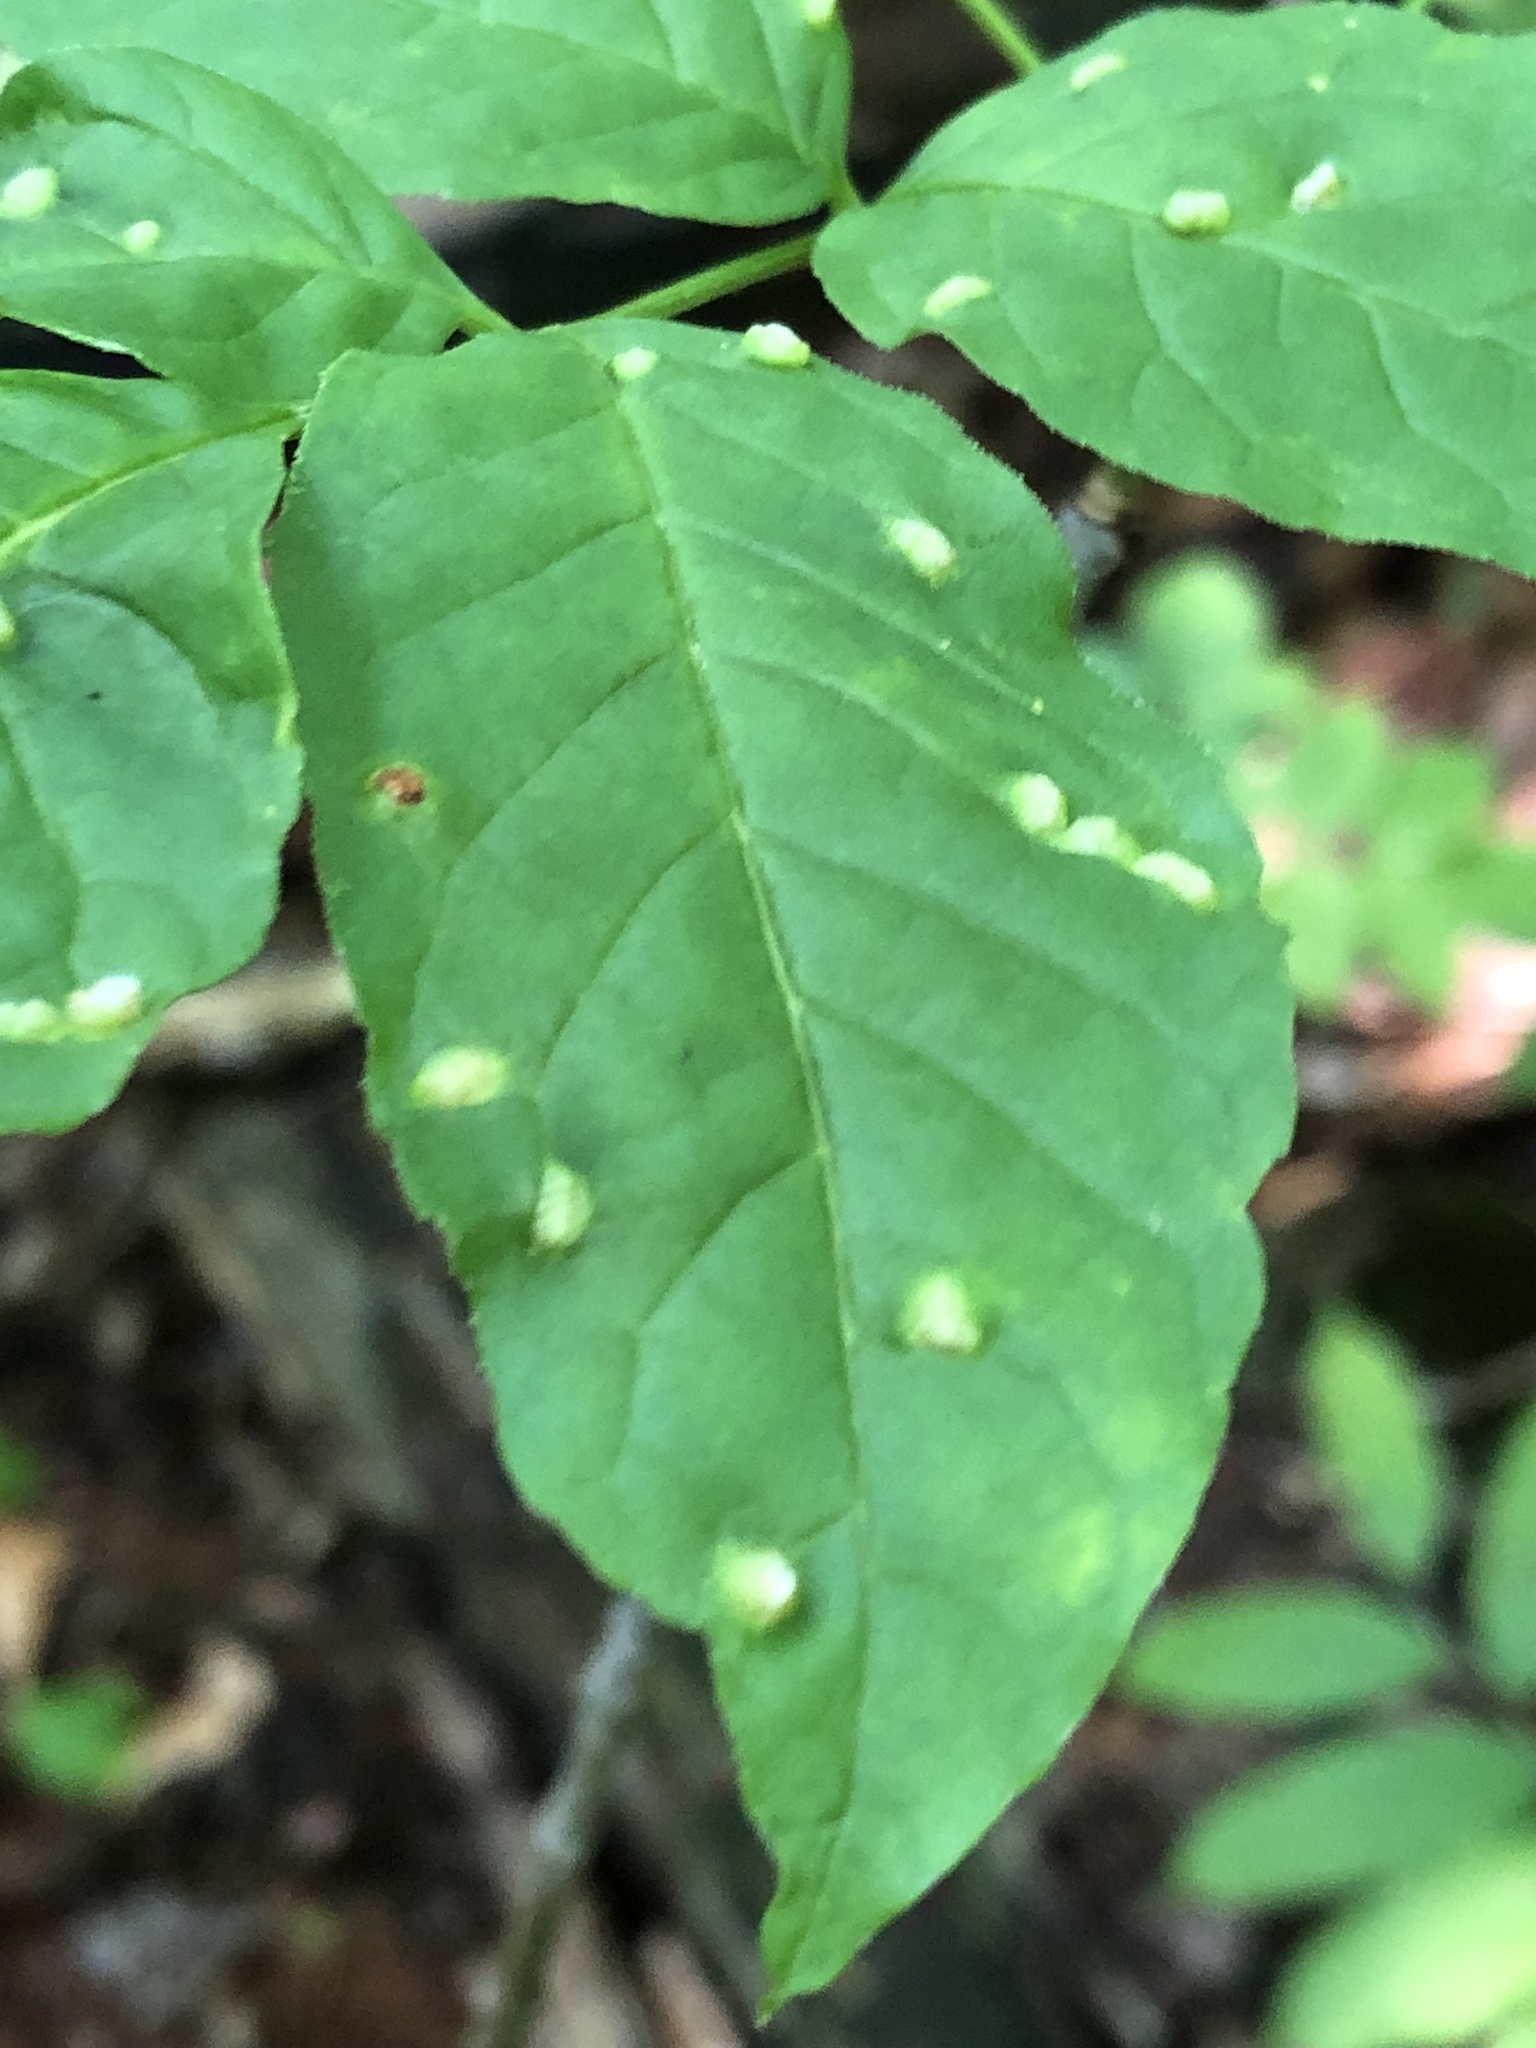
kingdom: Animalia
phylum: Arthropoda
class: Arachnida
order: Trombidiformes
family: Eriophyidae
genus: Aceria
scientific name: Aceria fraxinicola
